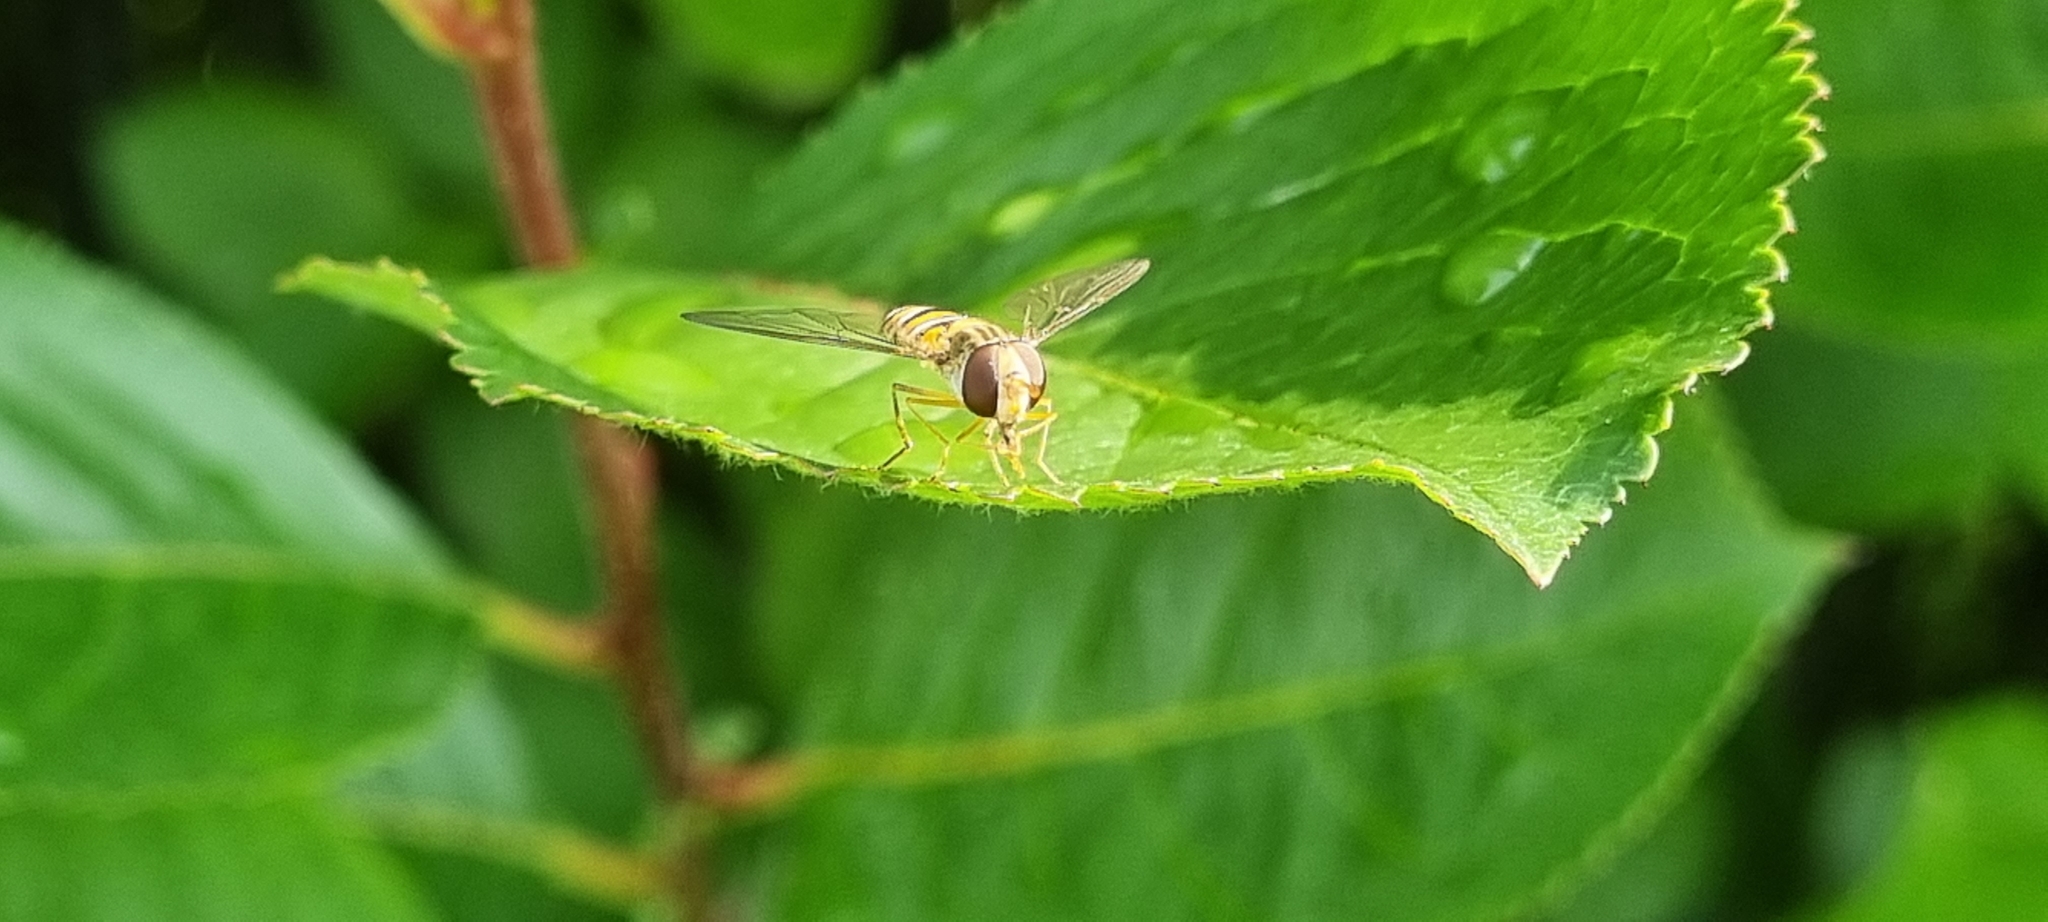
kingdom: Animalia
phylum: Arthropoda
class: Insecta
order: Diptera
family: Syrphidae
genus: Episyrphus
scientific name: Episyrphus balteatus
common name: Marmalade hoverfly
